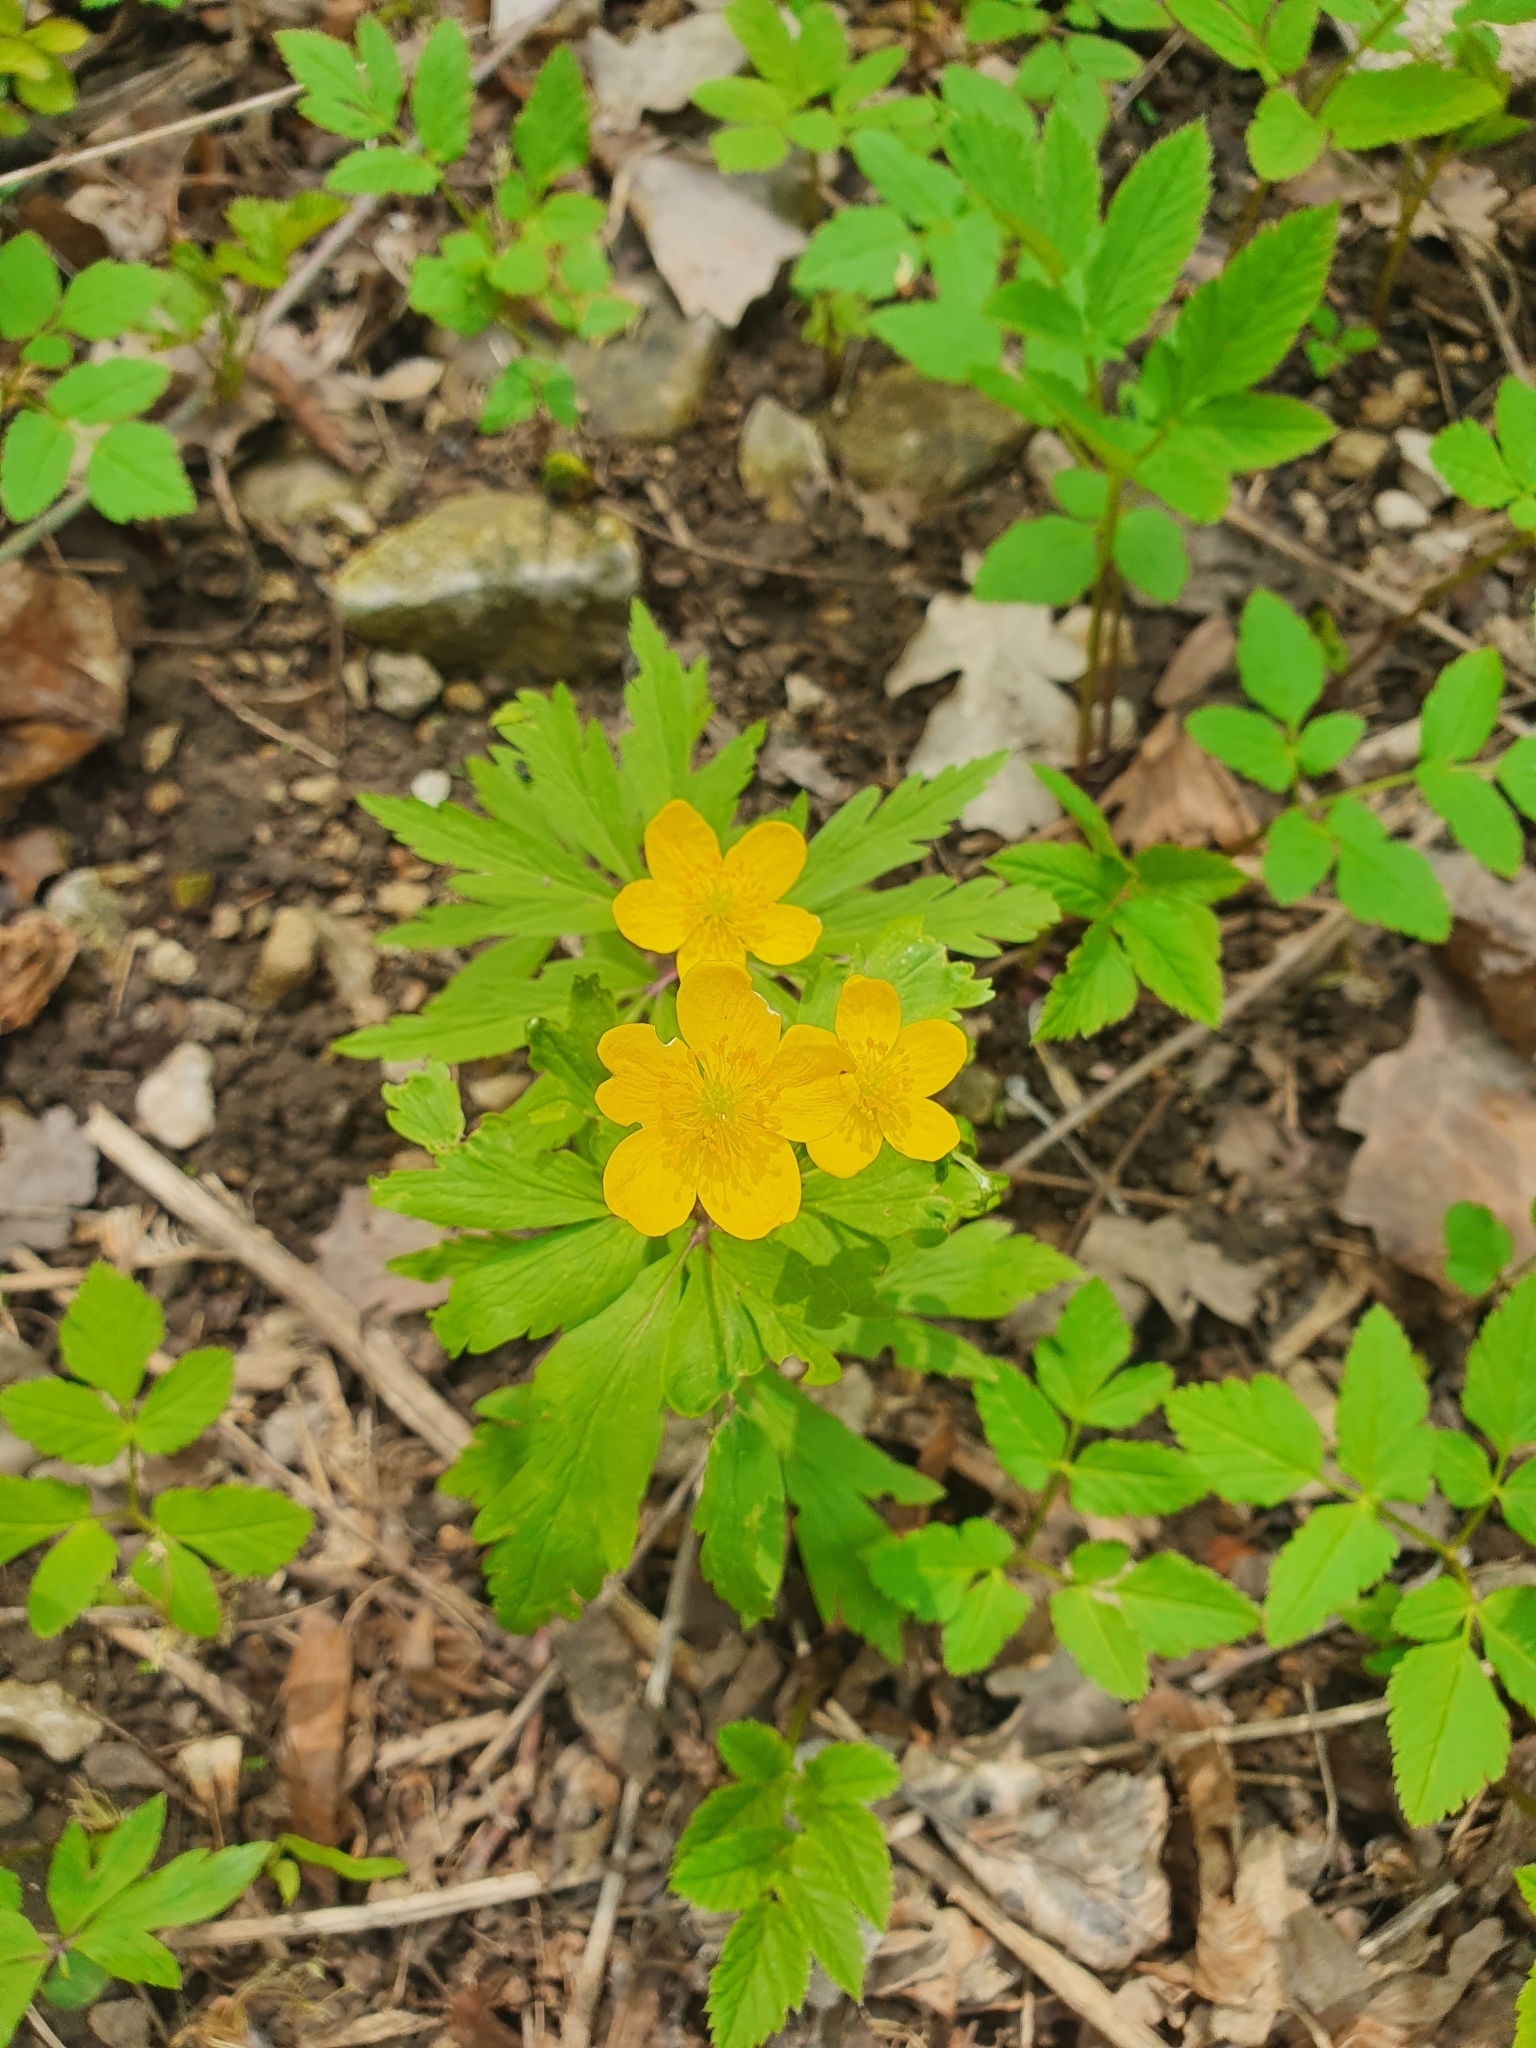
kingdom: Plantae
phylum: Tracheophyta
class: Magnoliopsida
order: Ranunculales
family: Ranunculaceae
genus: Anemone
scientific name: Anemone ranunculoides
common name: Yellow anemone
